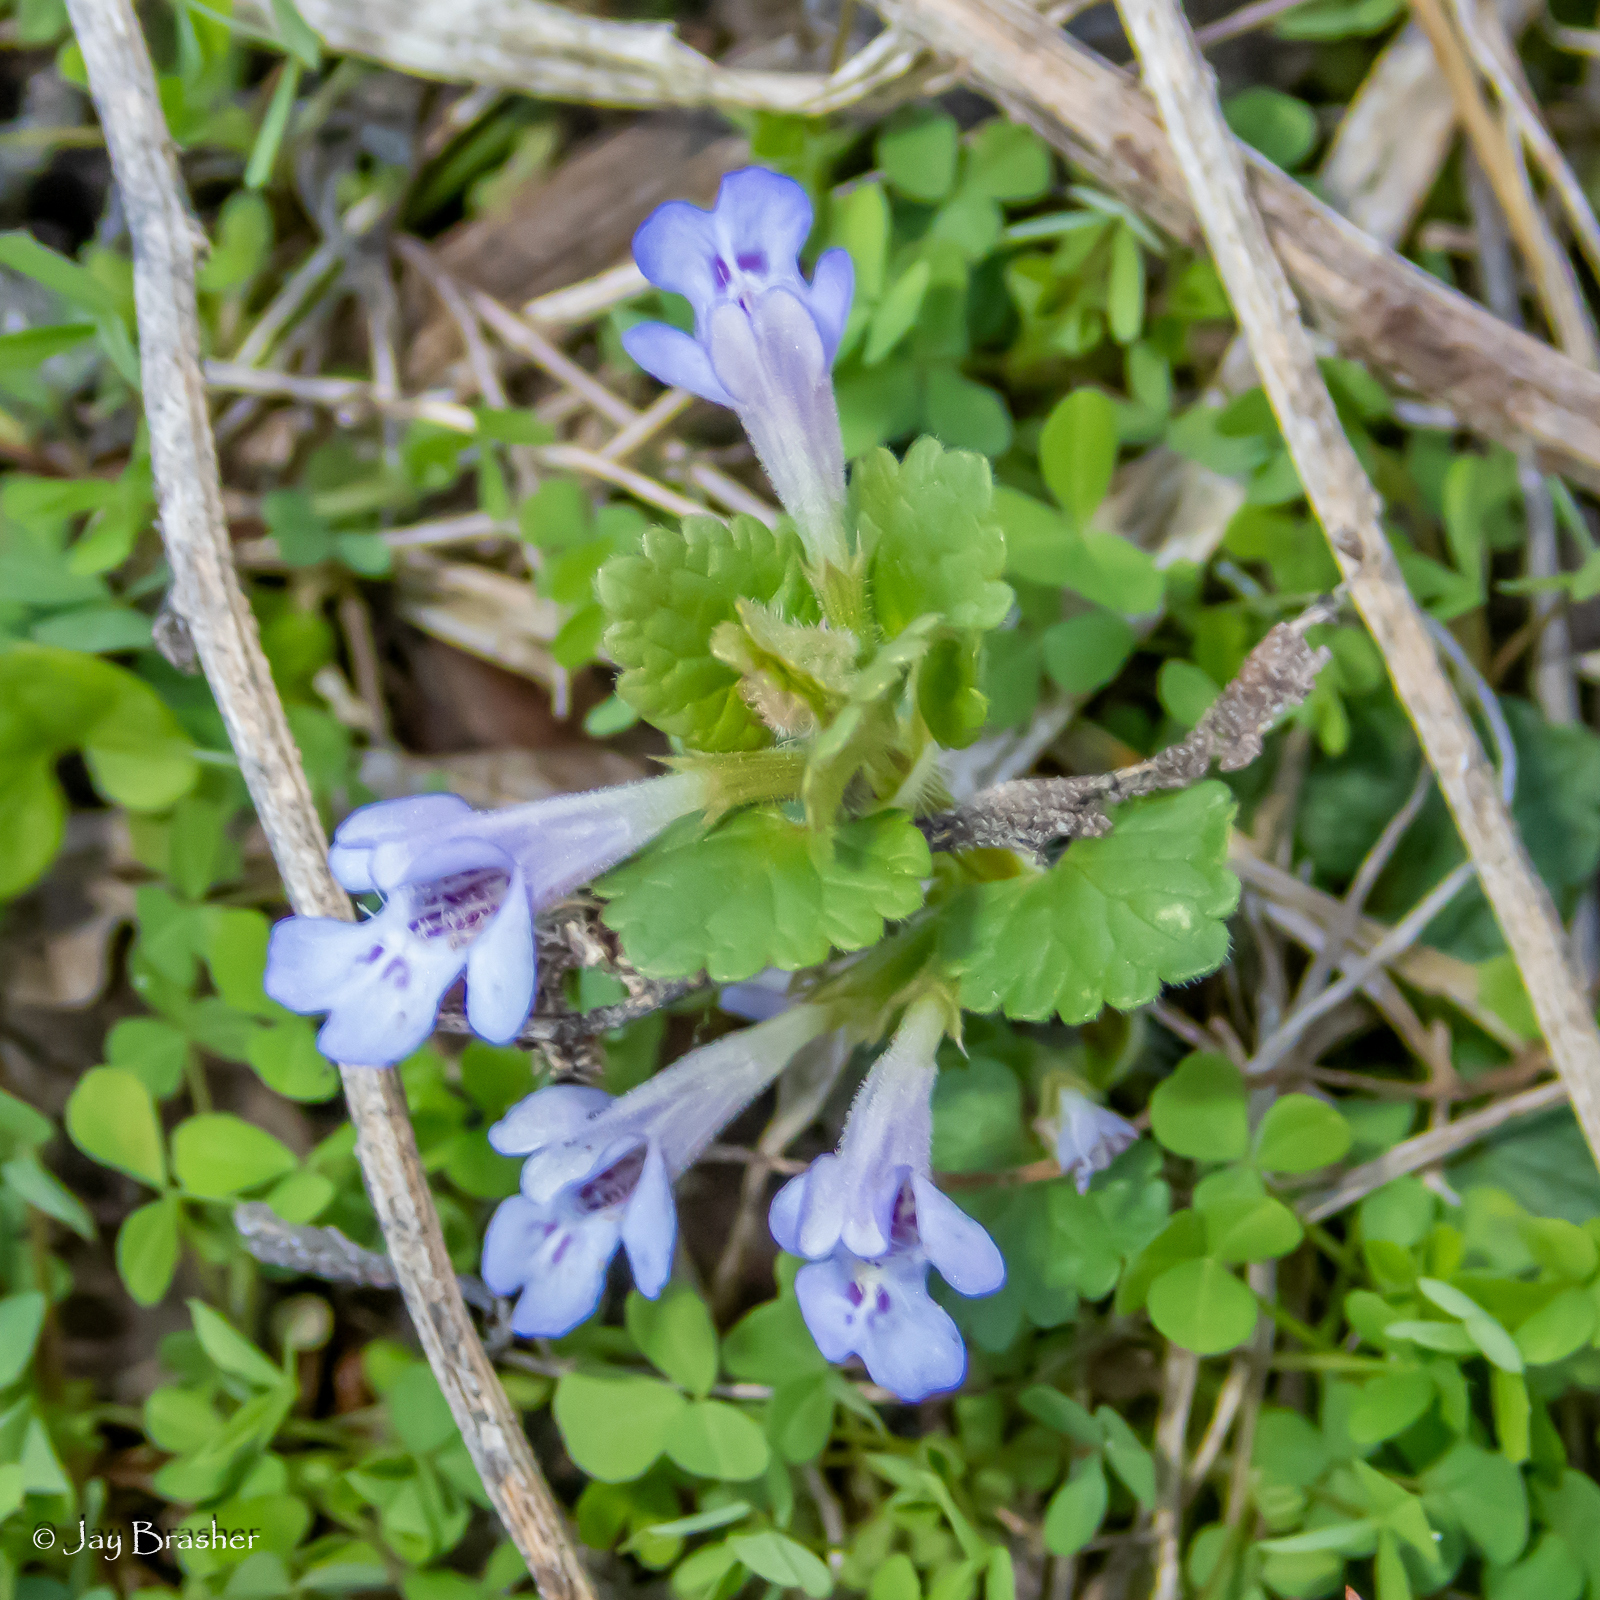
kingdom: Plantae
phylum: Tracheophyta
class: Magnoliopsida
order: Lamiales
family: Lamiaceae
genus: Glechoma
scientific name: Glechoma hederacea
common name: Ground ivy
